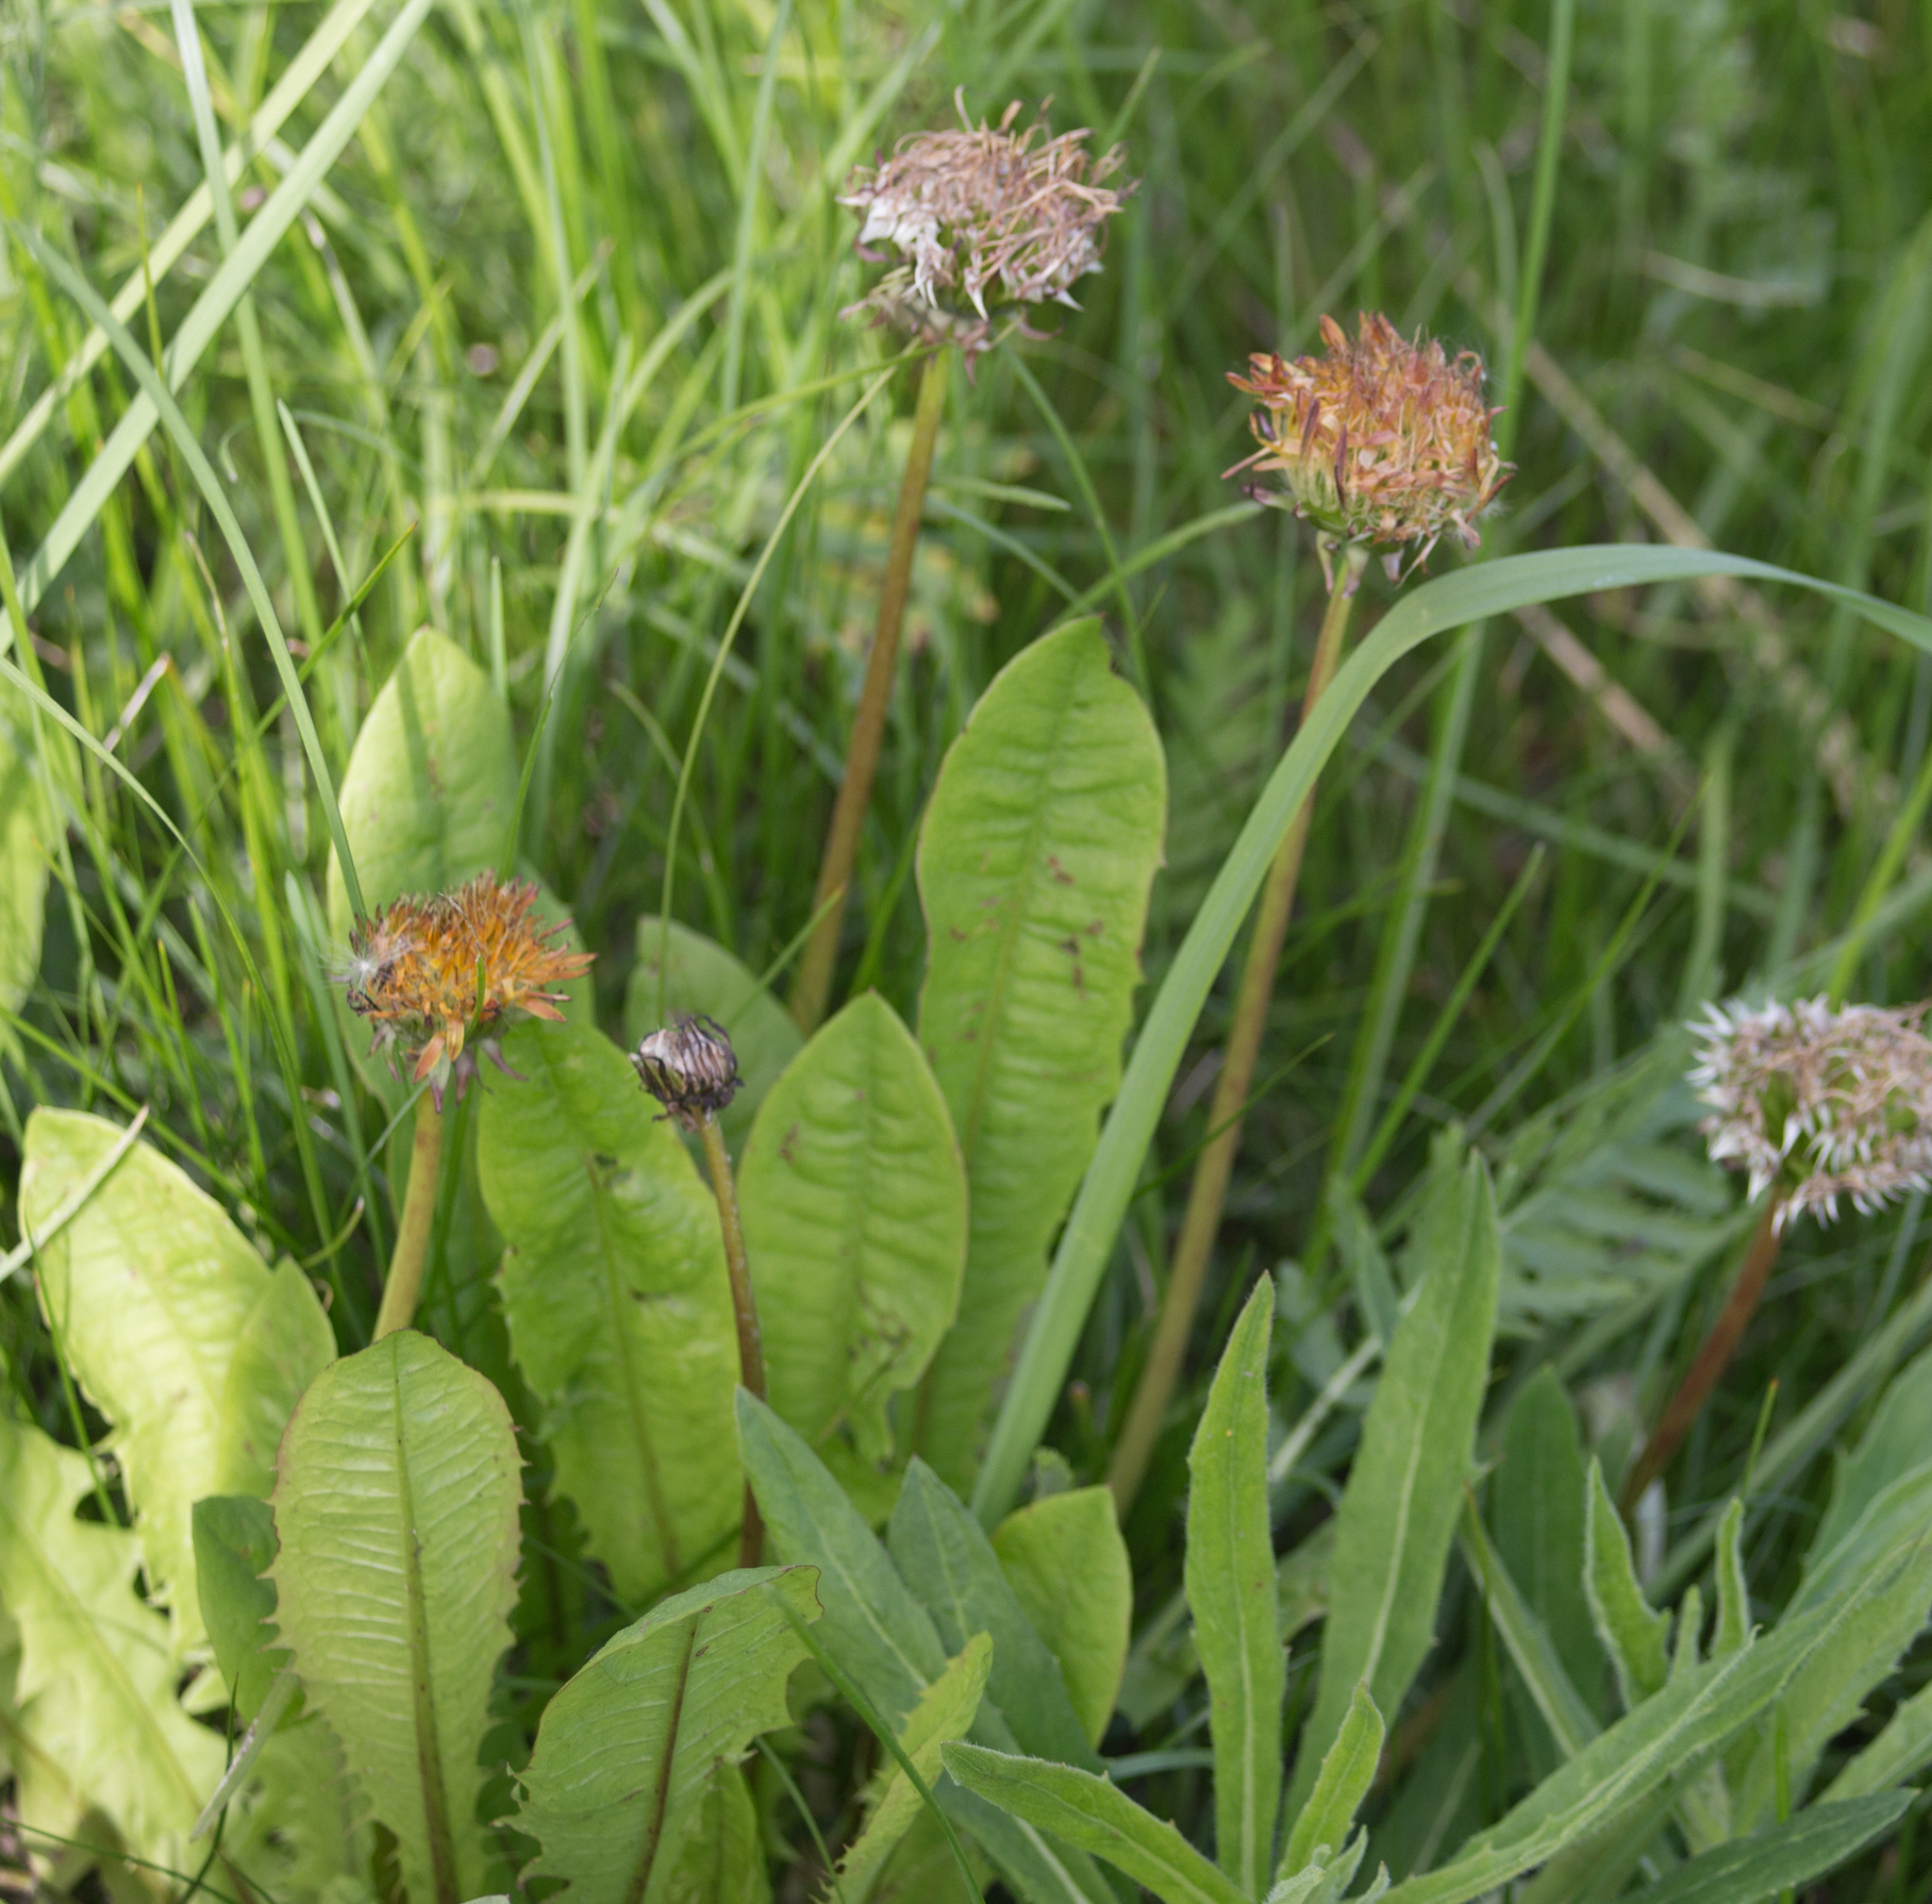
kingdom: Plantae
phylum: Tracheophyta
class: Magnoliopsida
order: Asterales
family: Asteraceae
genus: Taraxacum
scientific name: Taraxacum officinale
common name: Common dandelion
